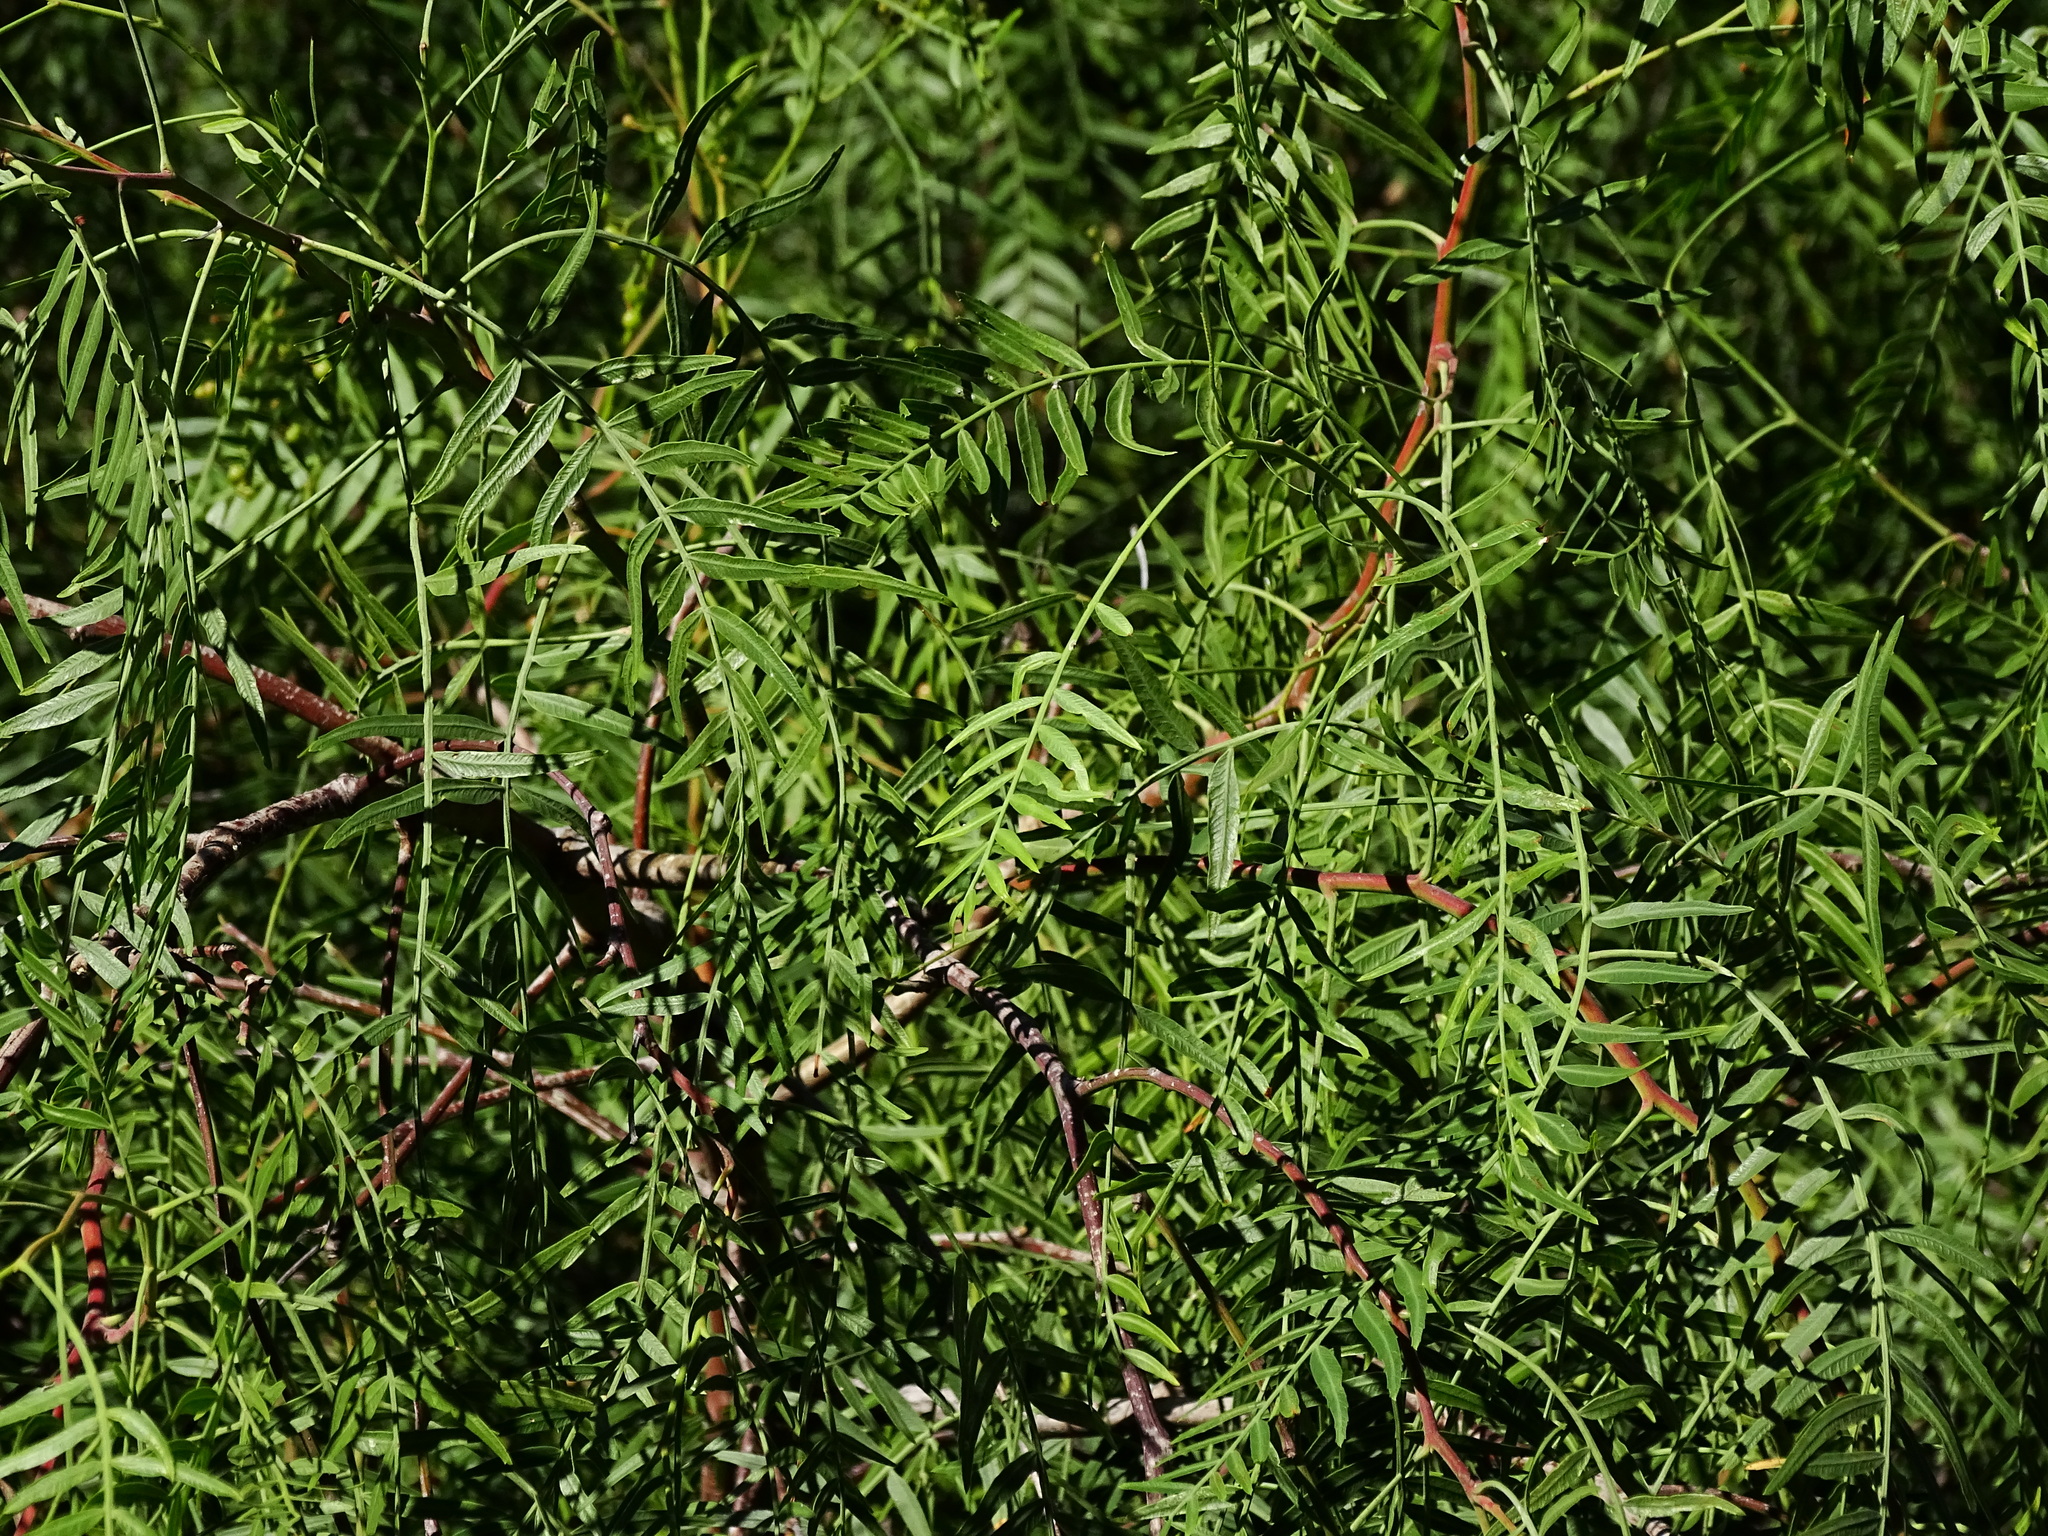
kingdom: Plantae
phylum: Tracheophyta
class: Magnoliopsida
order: Sapindales
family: Anacardiaceae
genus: Schinus
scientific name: Schinus molle
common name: Peruvian peppertree
